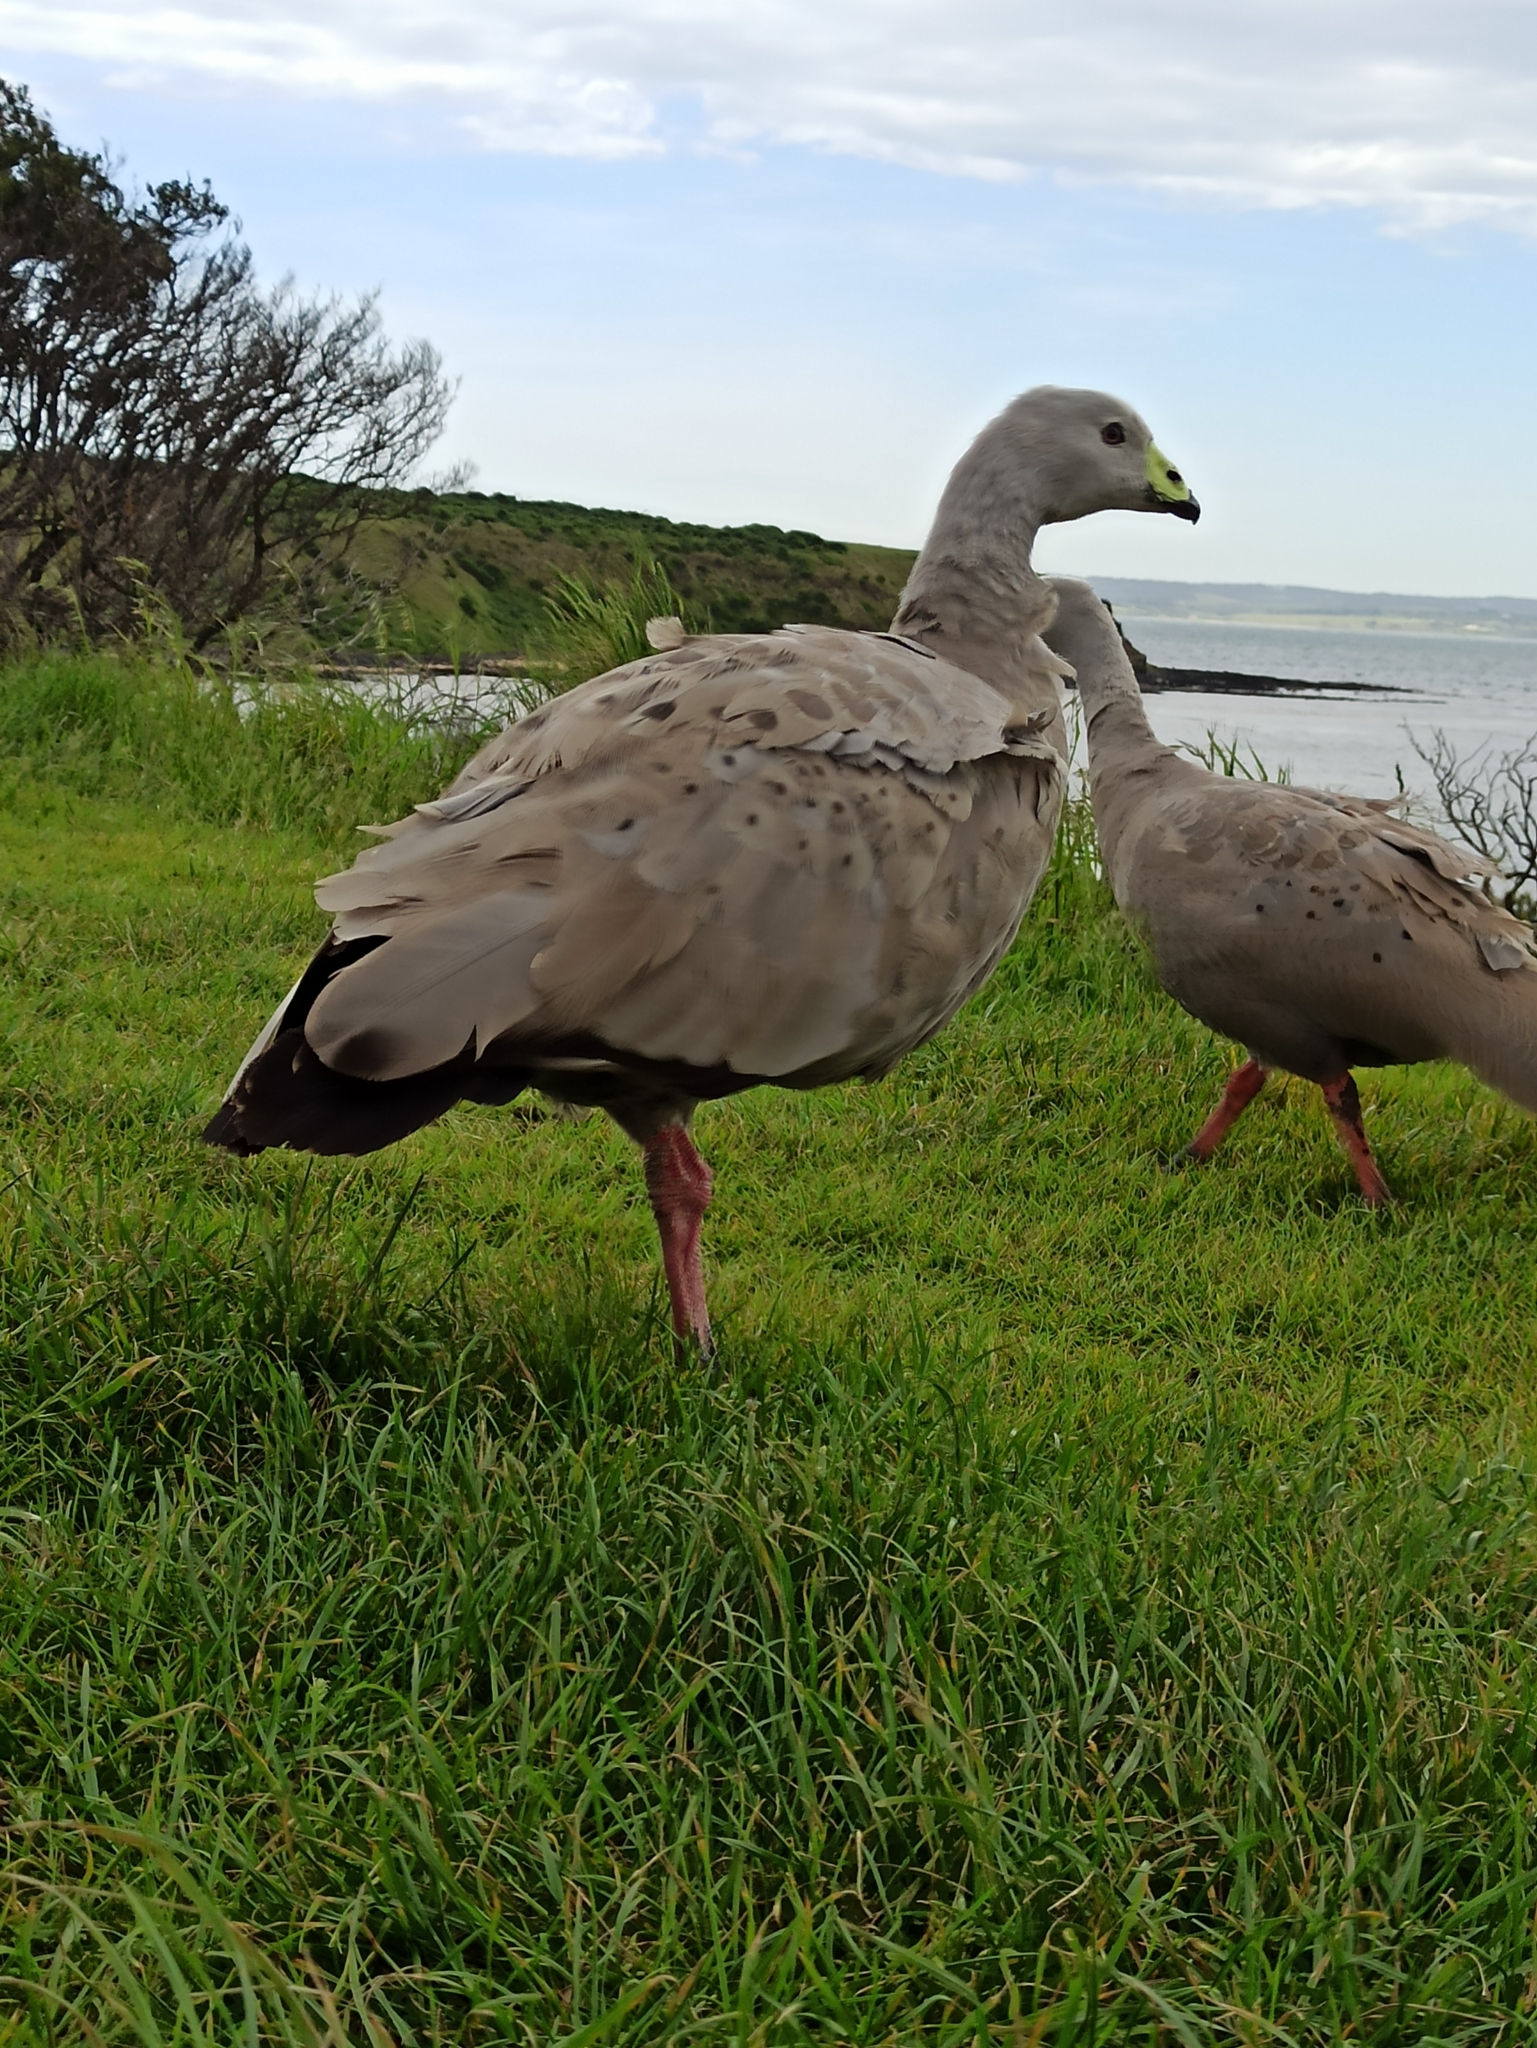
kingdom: Animalia
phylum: Chordata
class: Aves
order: Anseriformes
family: Anatidae
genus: Cereopsis
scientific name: Cereopsis novaehollandiae
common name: Cape barren goose
